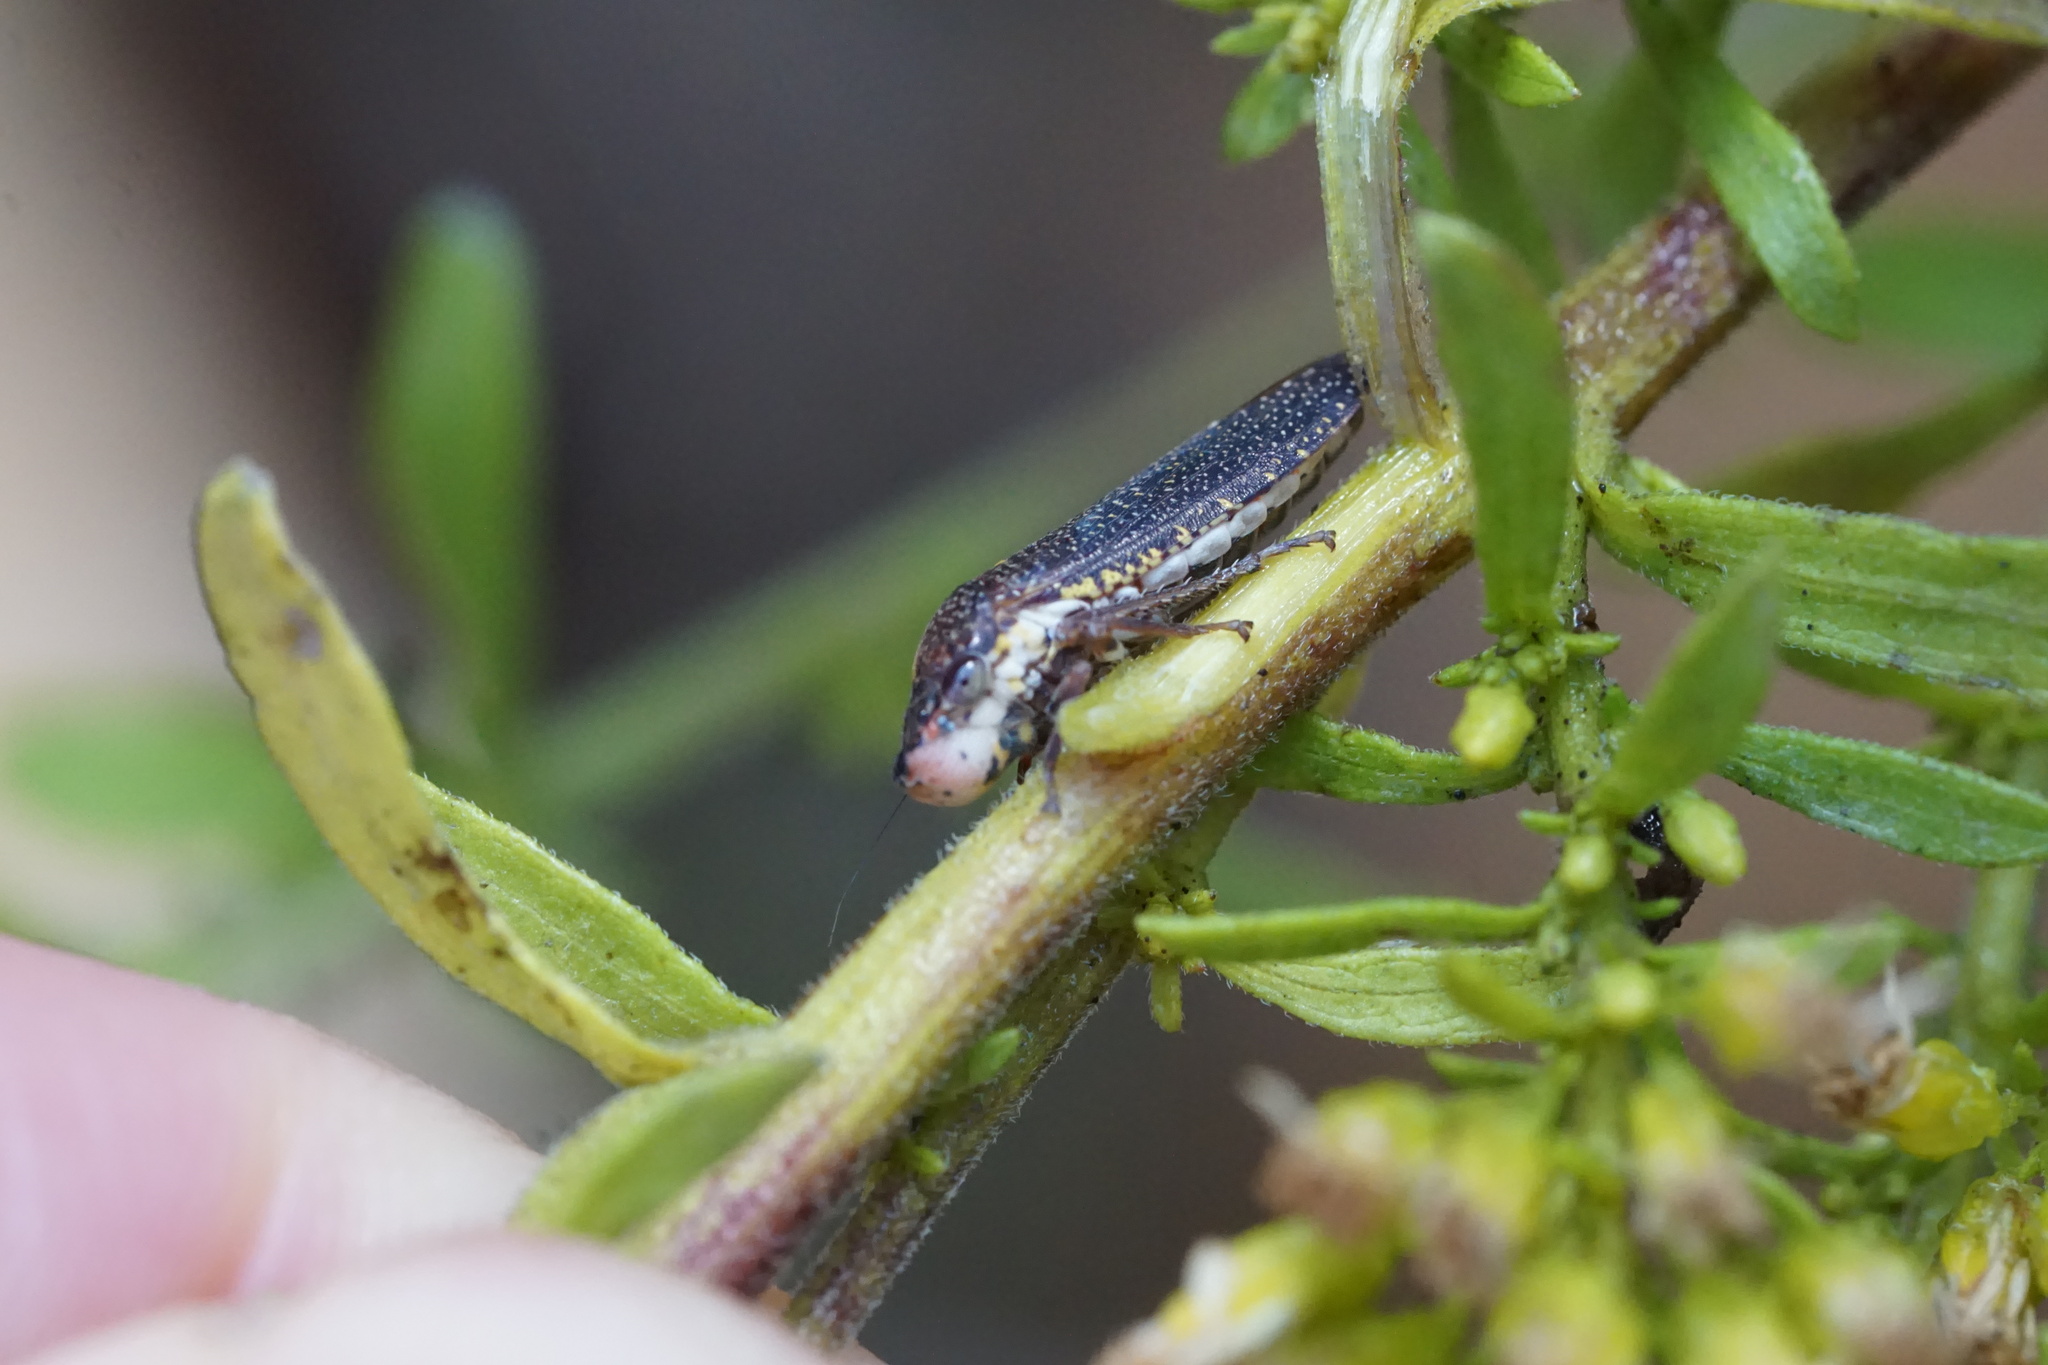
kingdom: Animalia
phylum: Arthropoda
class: Insecta
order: Hemiptera
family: Cicadellidae
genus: Paraulacizes
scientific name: Paraulacizes irrorata
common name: Speckled sharpshooter
